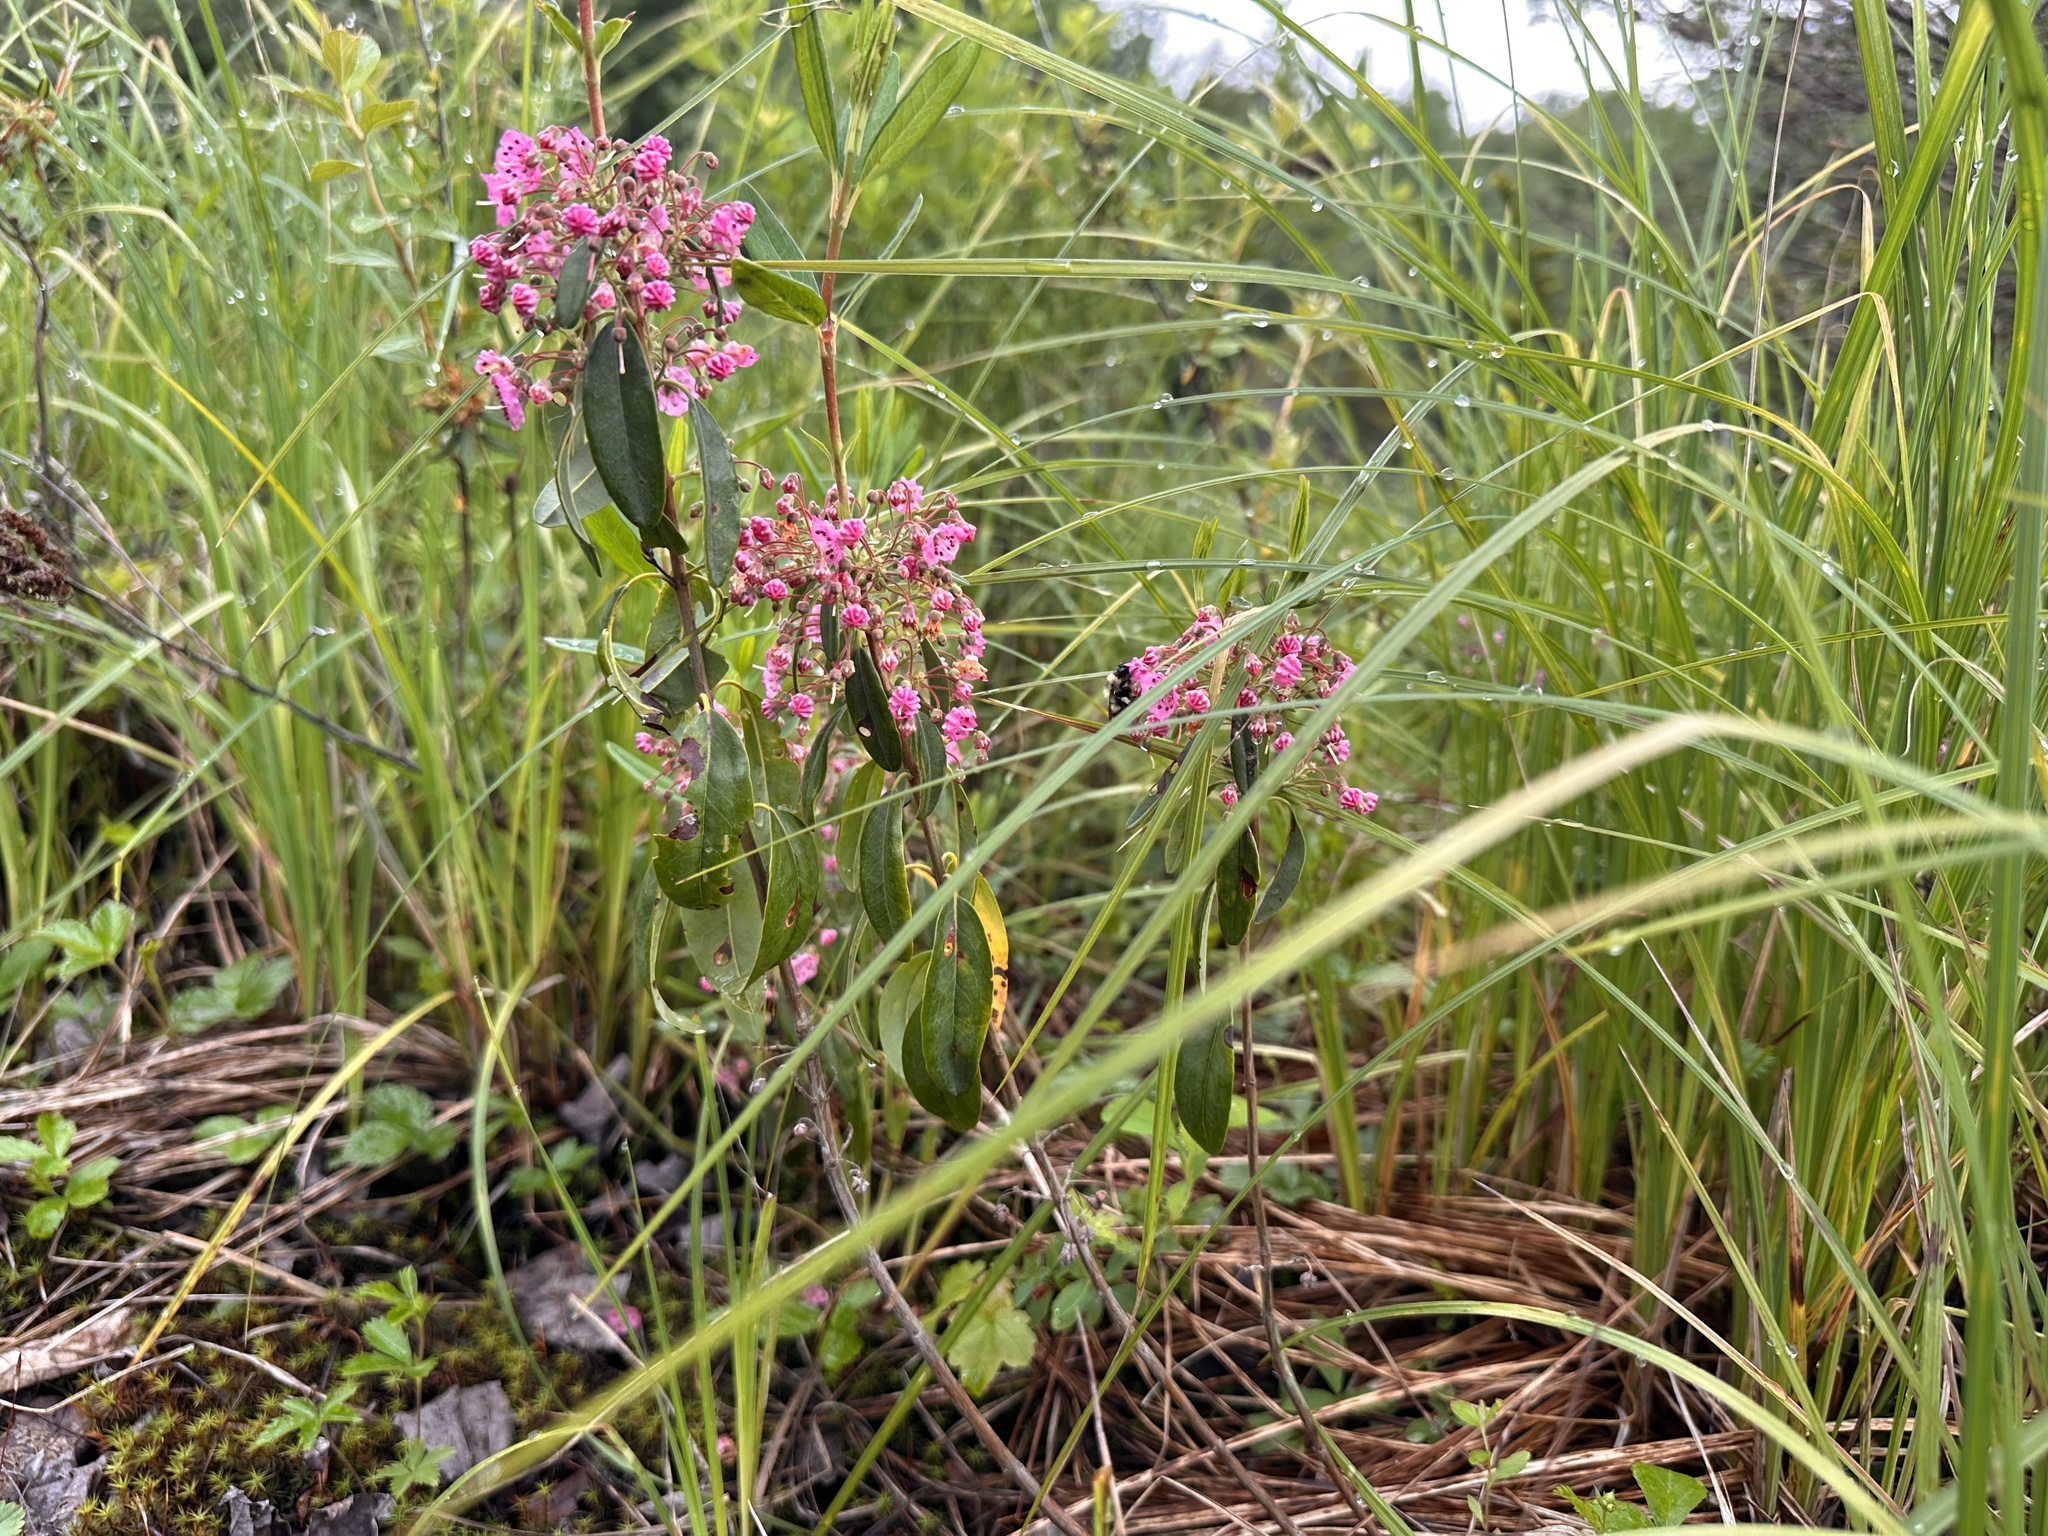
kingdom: Plantae
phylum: Tracheophyta
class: Magnoliopsida
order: Ericales
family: Ericaceae
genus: Kalmia
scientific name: Kalmia angustifolia
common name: Sheep-laurel
